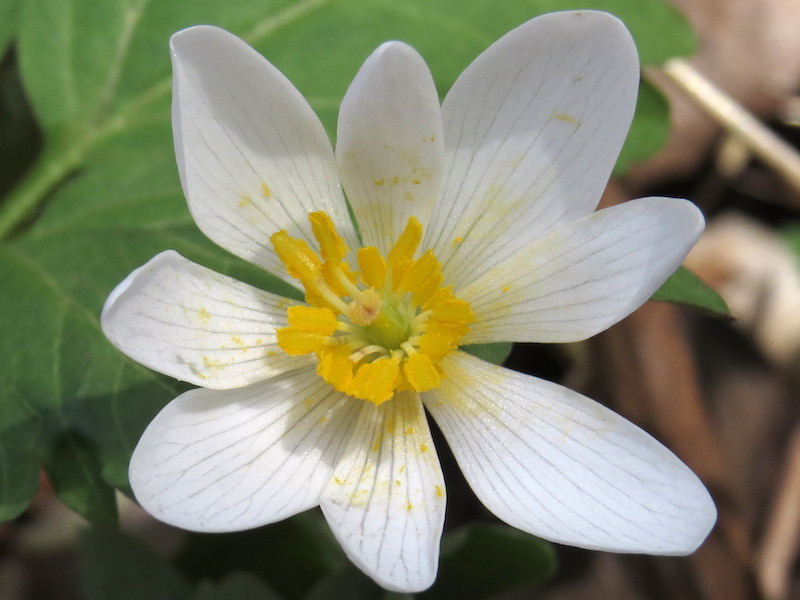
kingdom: Plantae
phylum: Tracheophyta
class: Magnoliopsida
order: Ranunculales
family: Papaveraceae
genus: Sanguinaria
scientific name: Sanguinaria canadensis
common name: Bloodroot
